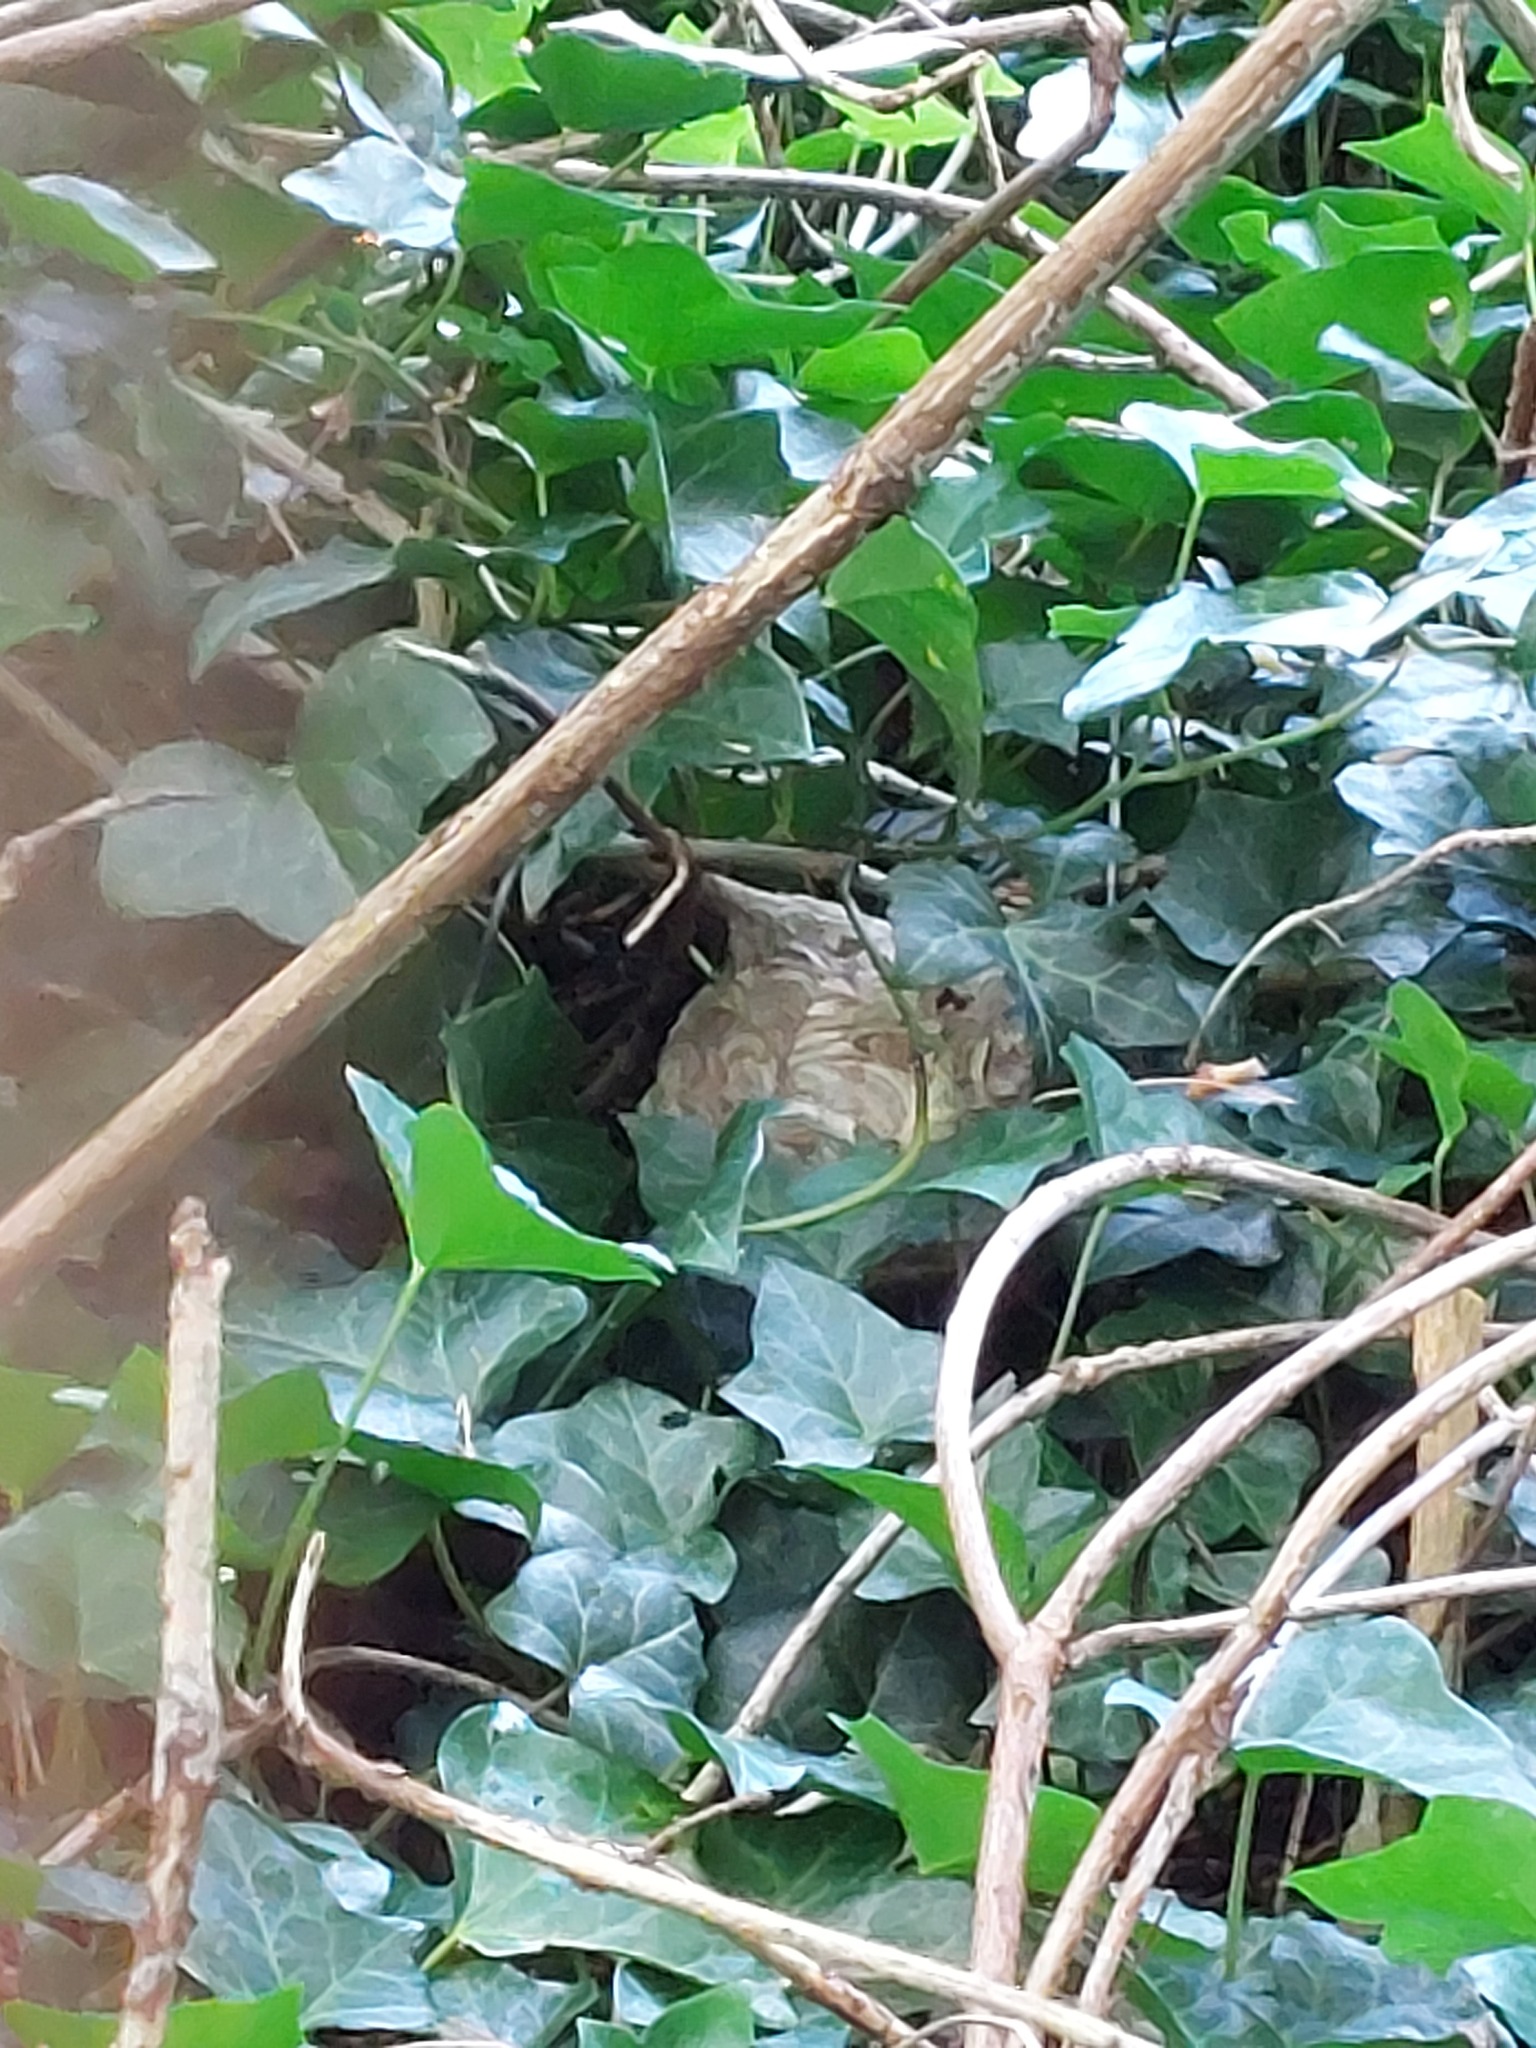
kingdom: Animalia
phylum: Arthropoda
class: Insecta
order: Hymenoptera
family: Vespidae
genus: Vespa
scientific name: Vespa velutina
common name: Asian hornet
